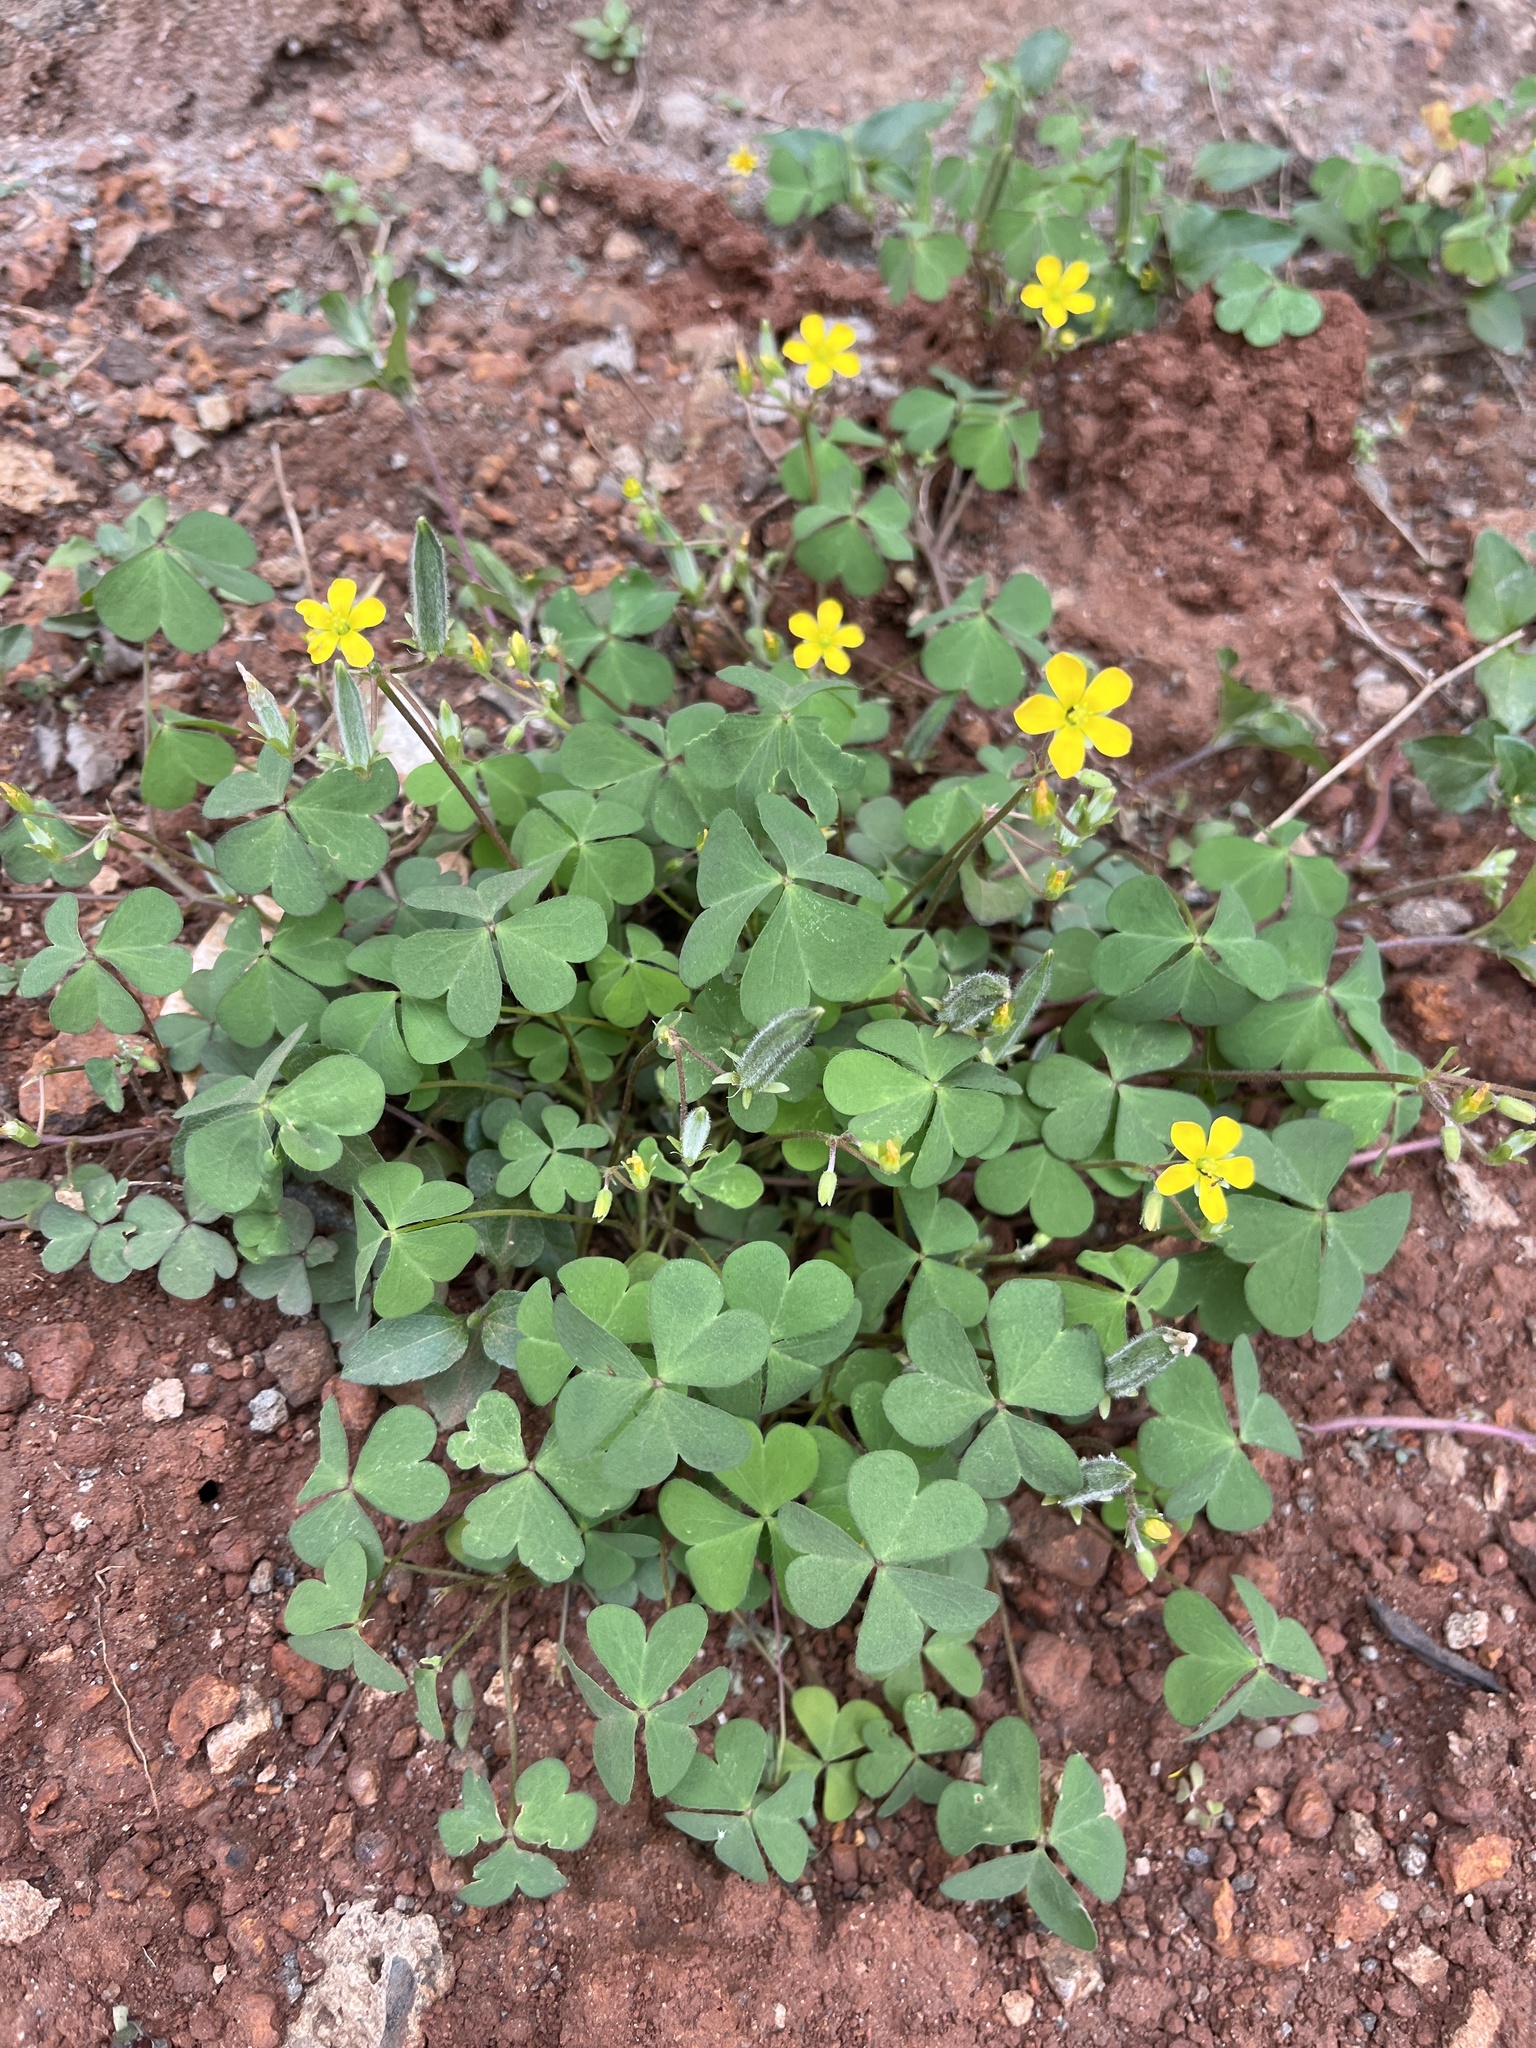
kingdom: Plantae
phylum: Tracheophyta
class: Magnoliopsida
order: Oxalidales
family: Oxalidaceae
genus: Oxalis
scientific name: Oxalis corniculata
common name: Procumbent yellow-sorrel
